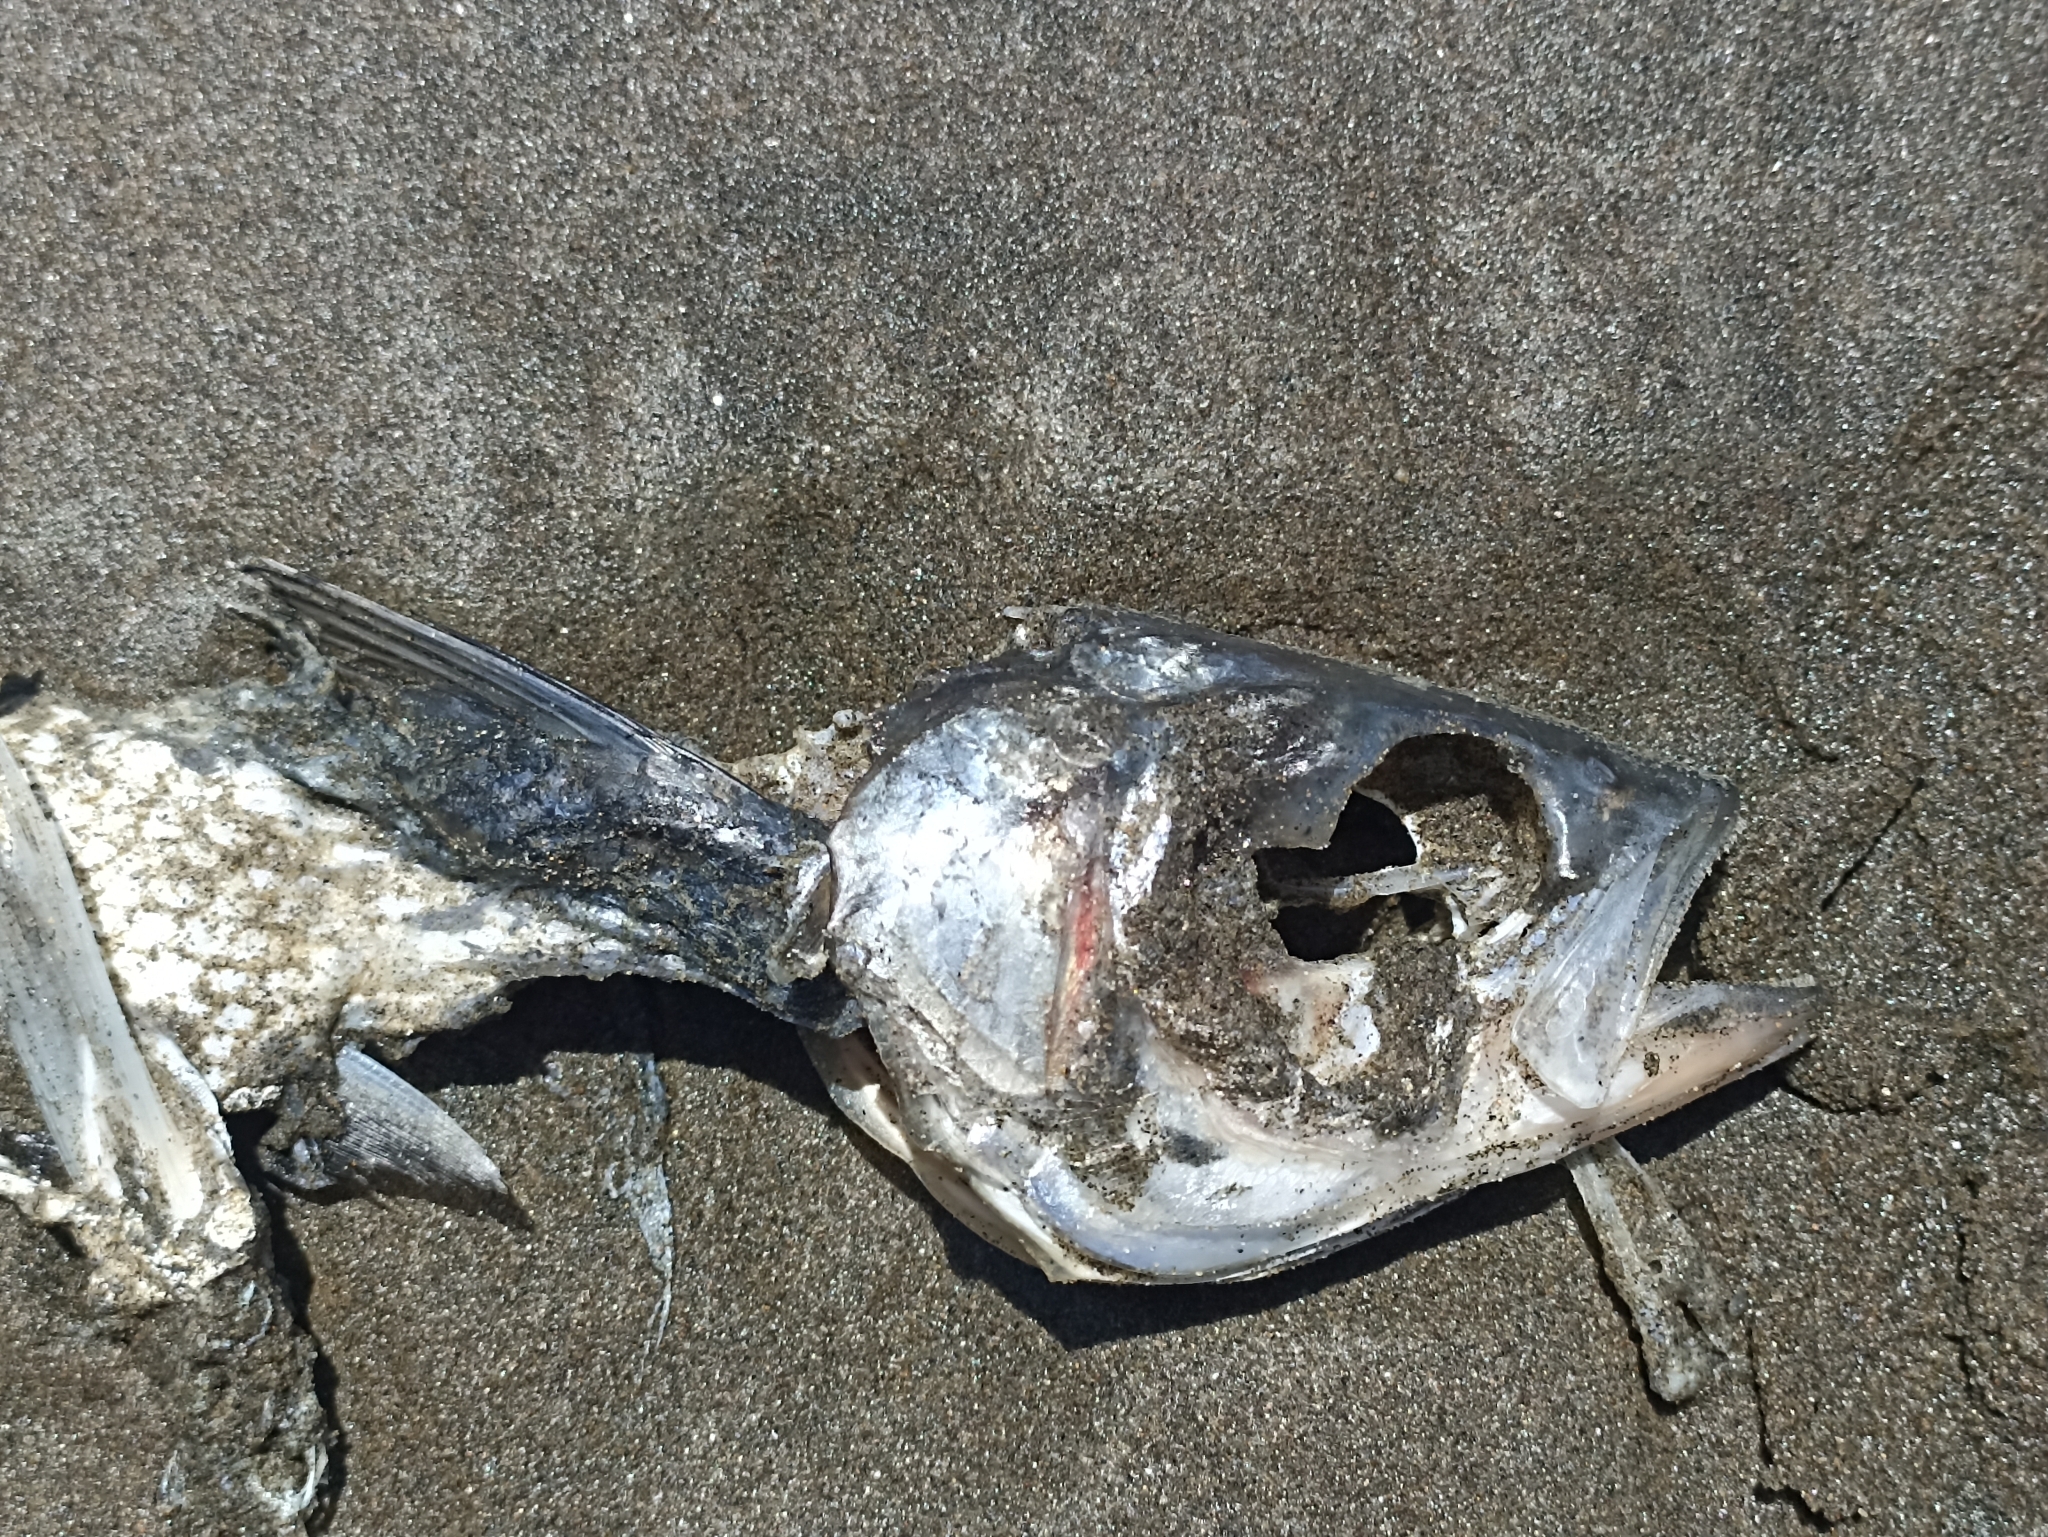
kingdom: Animalia
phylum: Chordata
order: Perciformes
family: Arripidae
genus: Arripis
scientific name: Arripis trutta
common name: Kahawai
